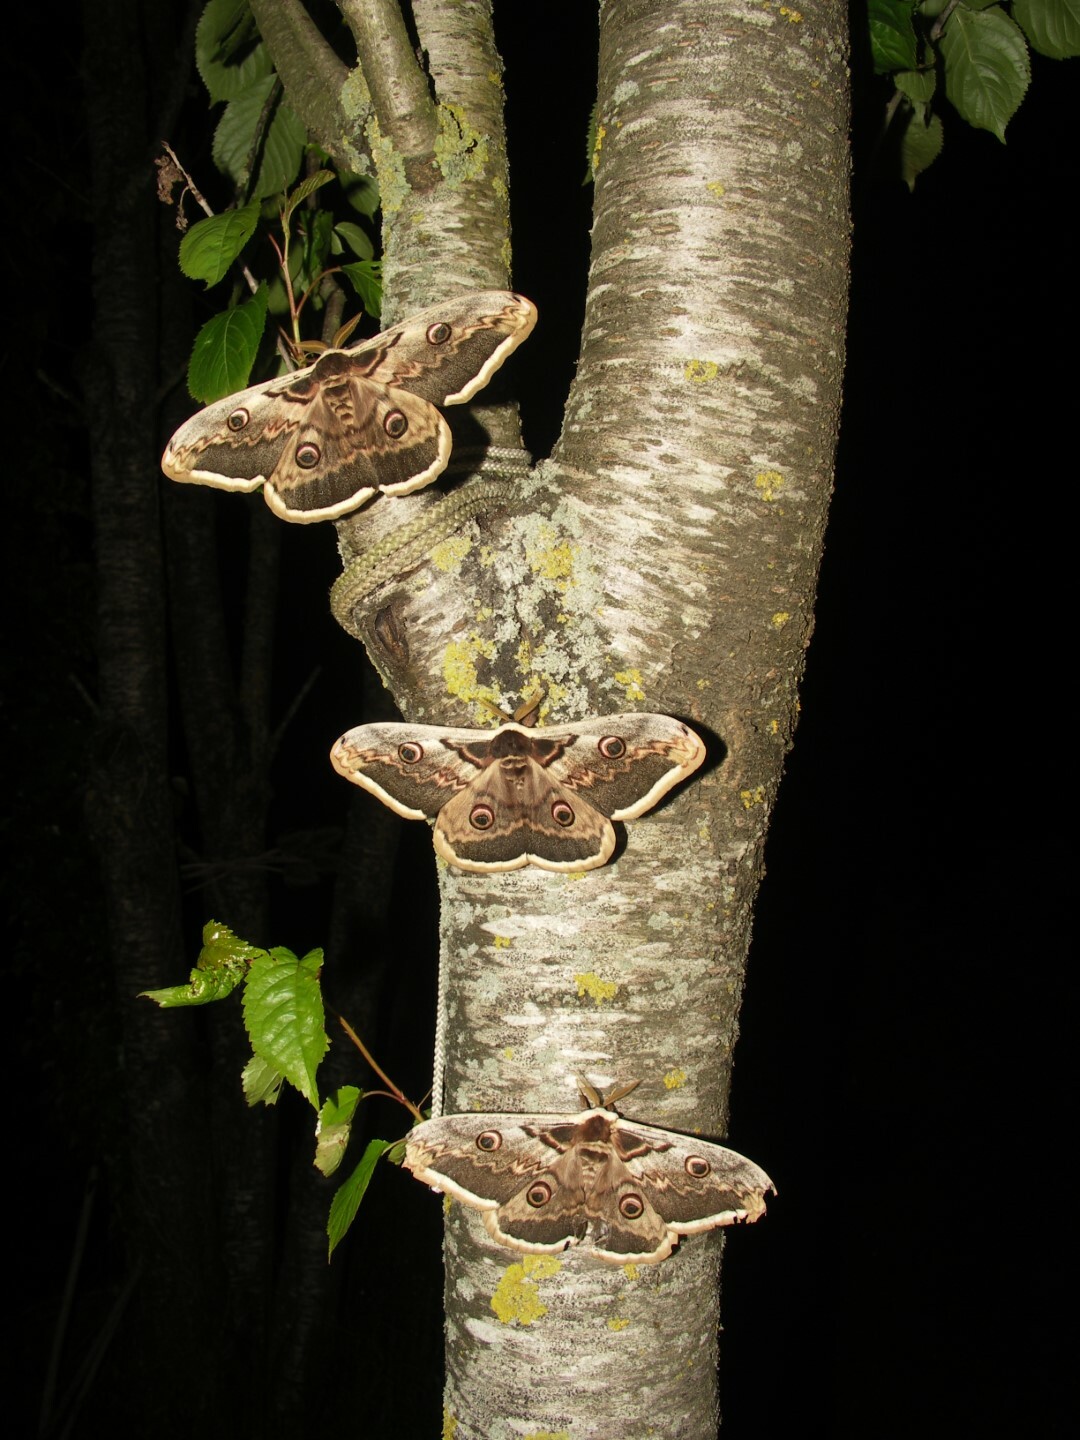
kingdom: Animalia
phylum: Arthropoda
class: Insecta
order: Lepidoptera
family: Saturniidae
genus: Saturnia
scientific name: Saturnia pyri
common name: Great peacock moth
